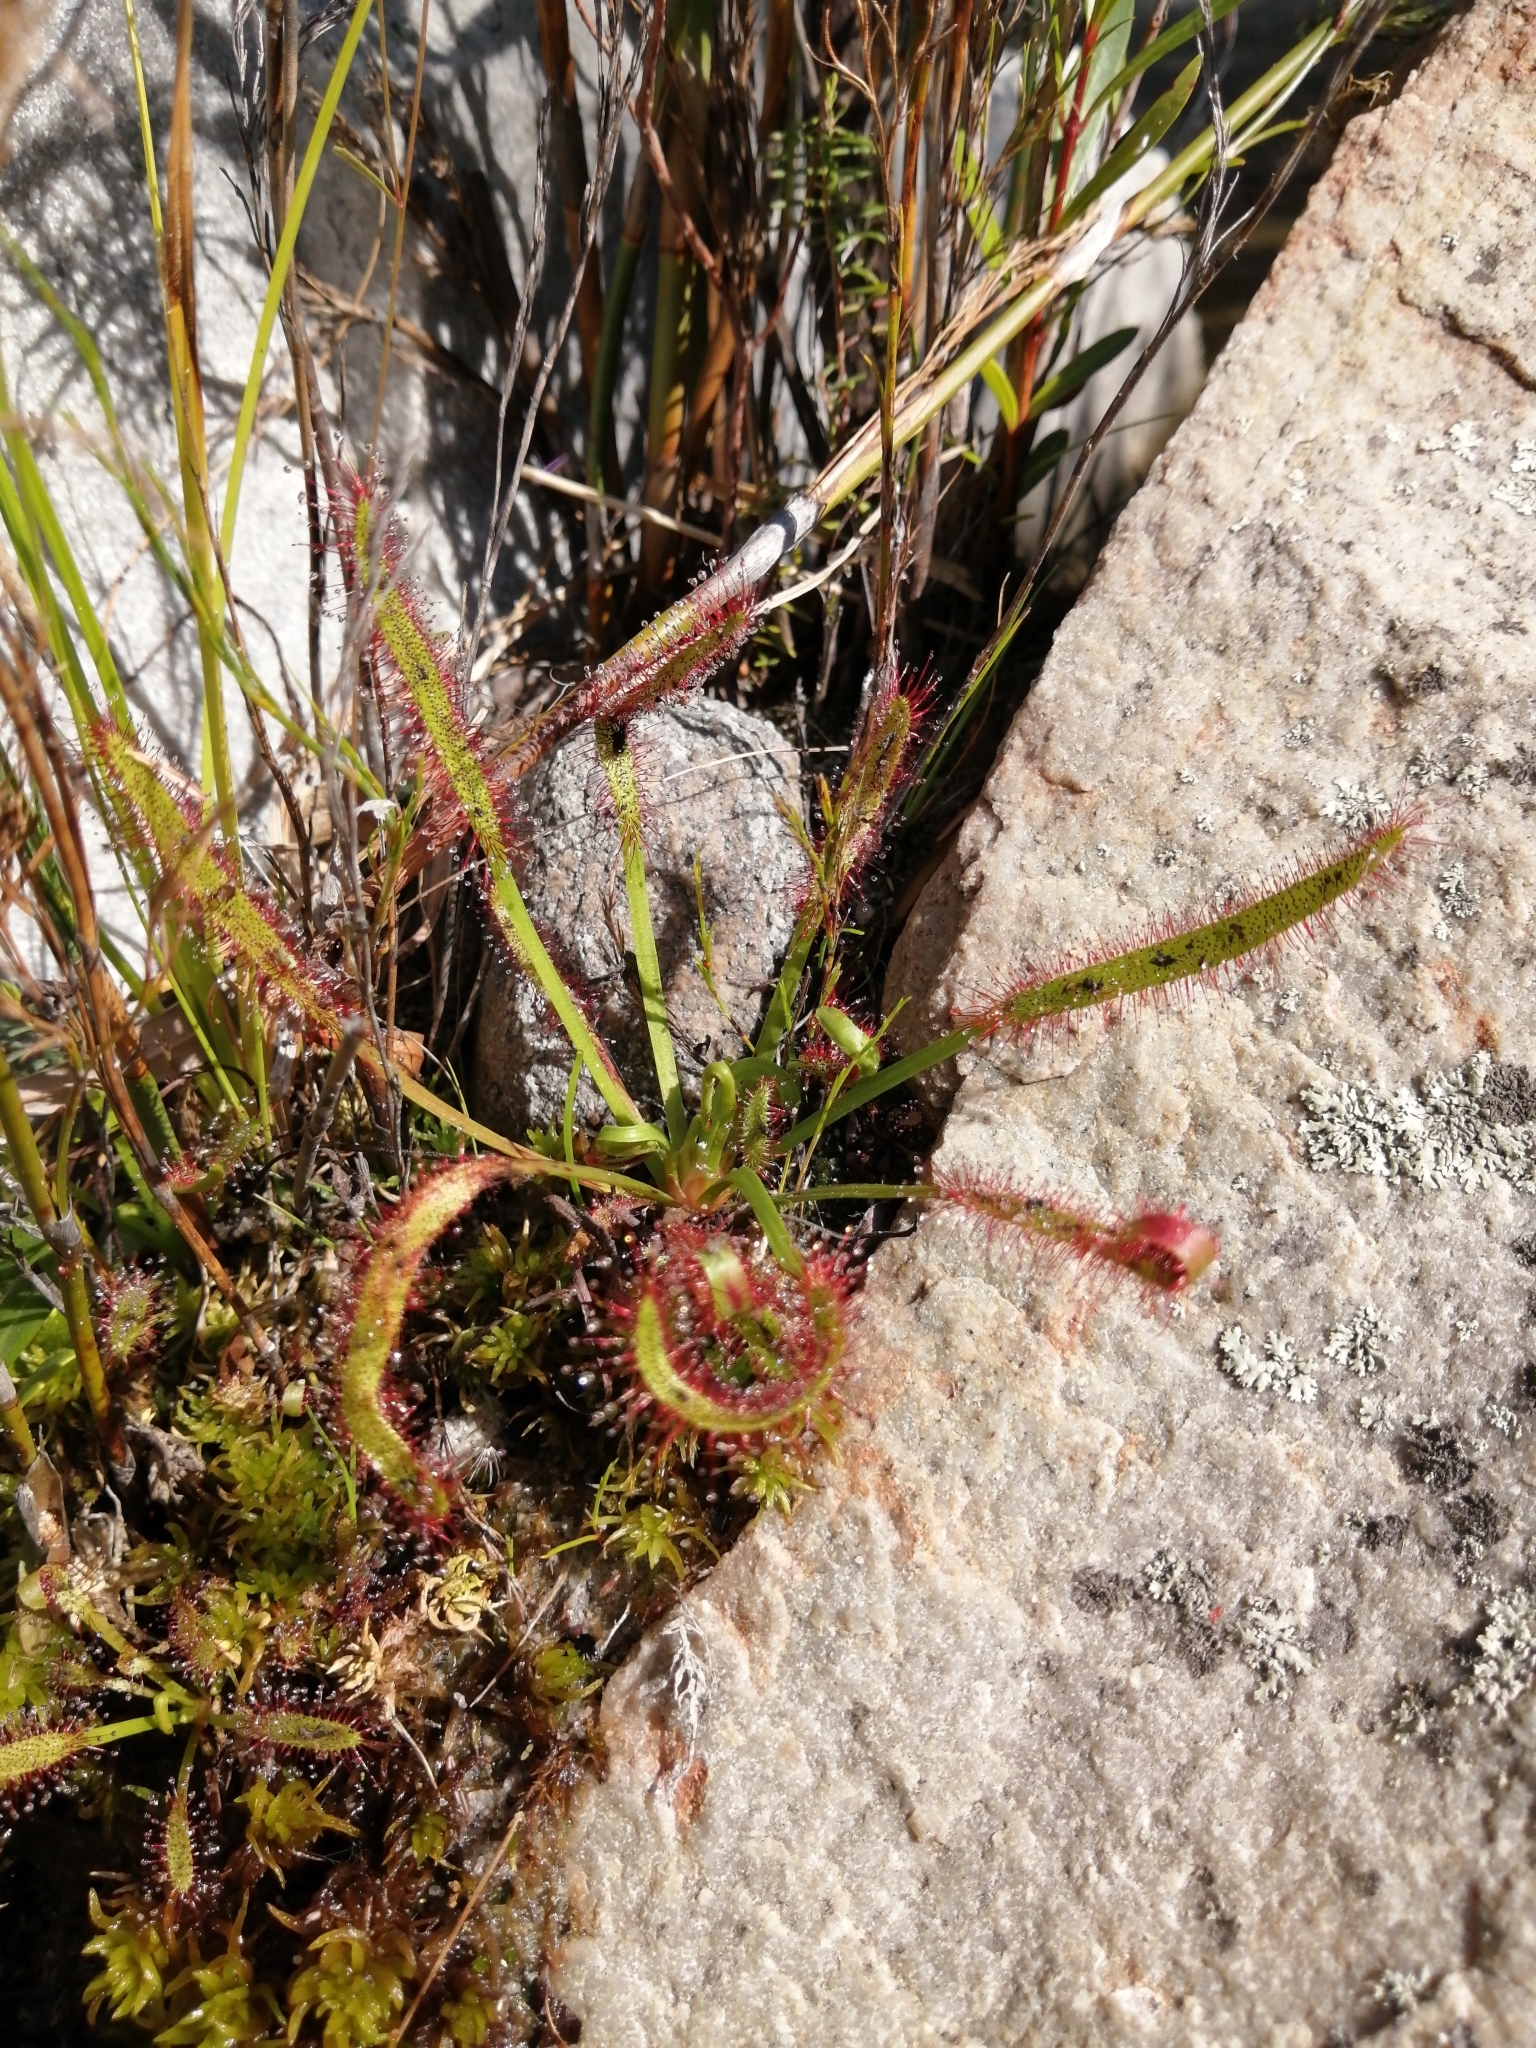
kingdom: Plantae
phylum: Tracheophyta
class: Magnoliopsida
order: Caryophyllales
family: Droseraceae
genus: Drosera
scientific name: Drosera capensis
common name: Cape sundew
